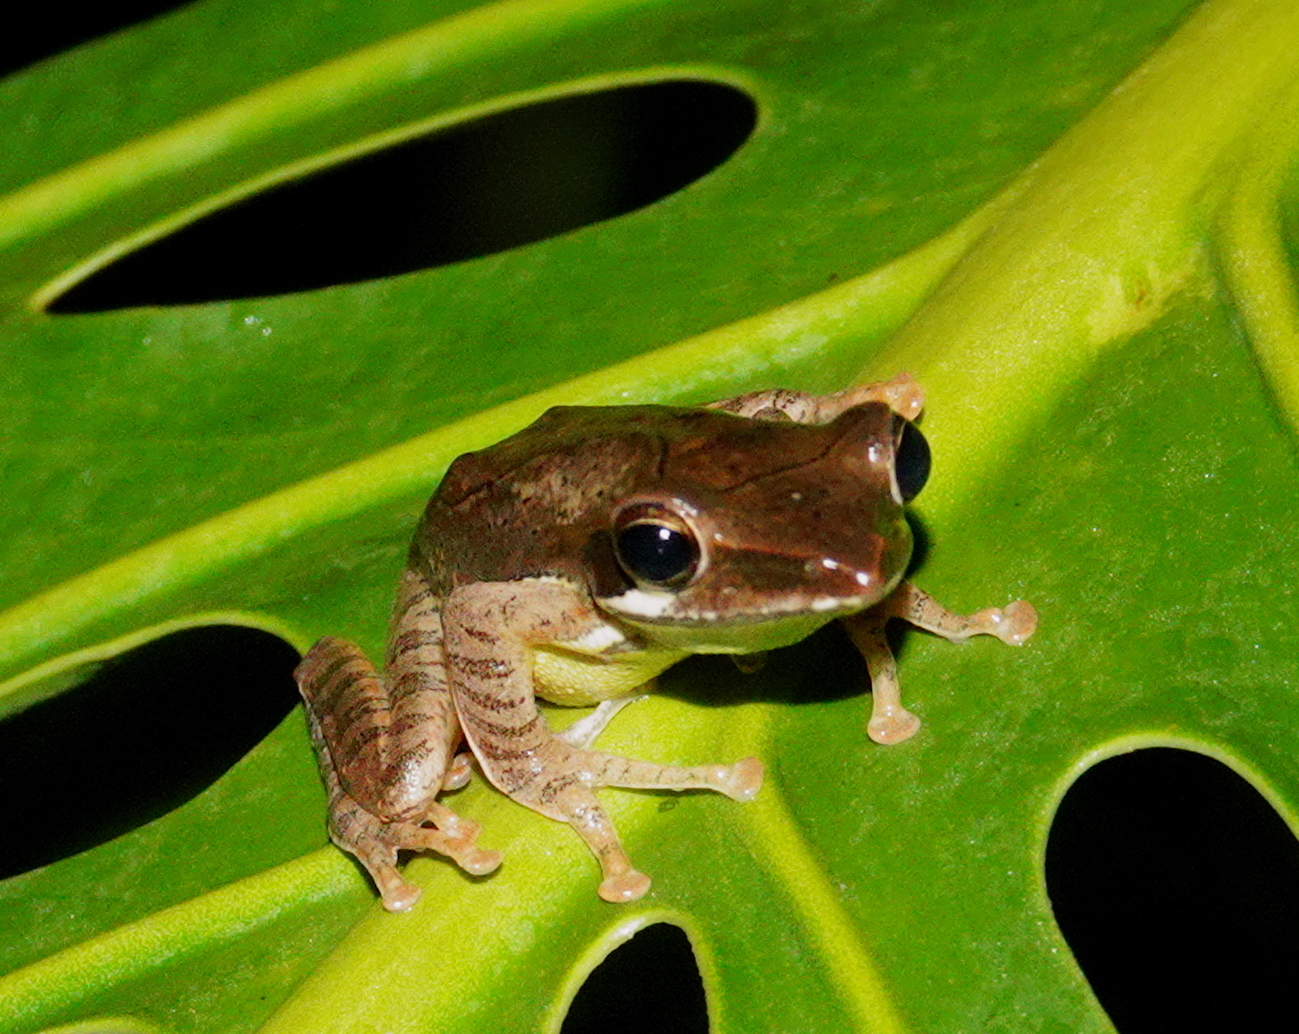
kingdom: Animalia
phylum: Chordata
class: Amphibia
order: Anura
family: Rhacophoridae
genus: Taruga
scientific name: Taruga eques
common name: Montane hour-glass tree-frog
